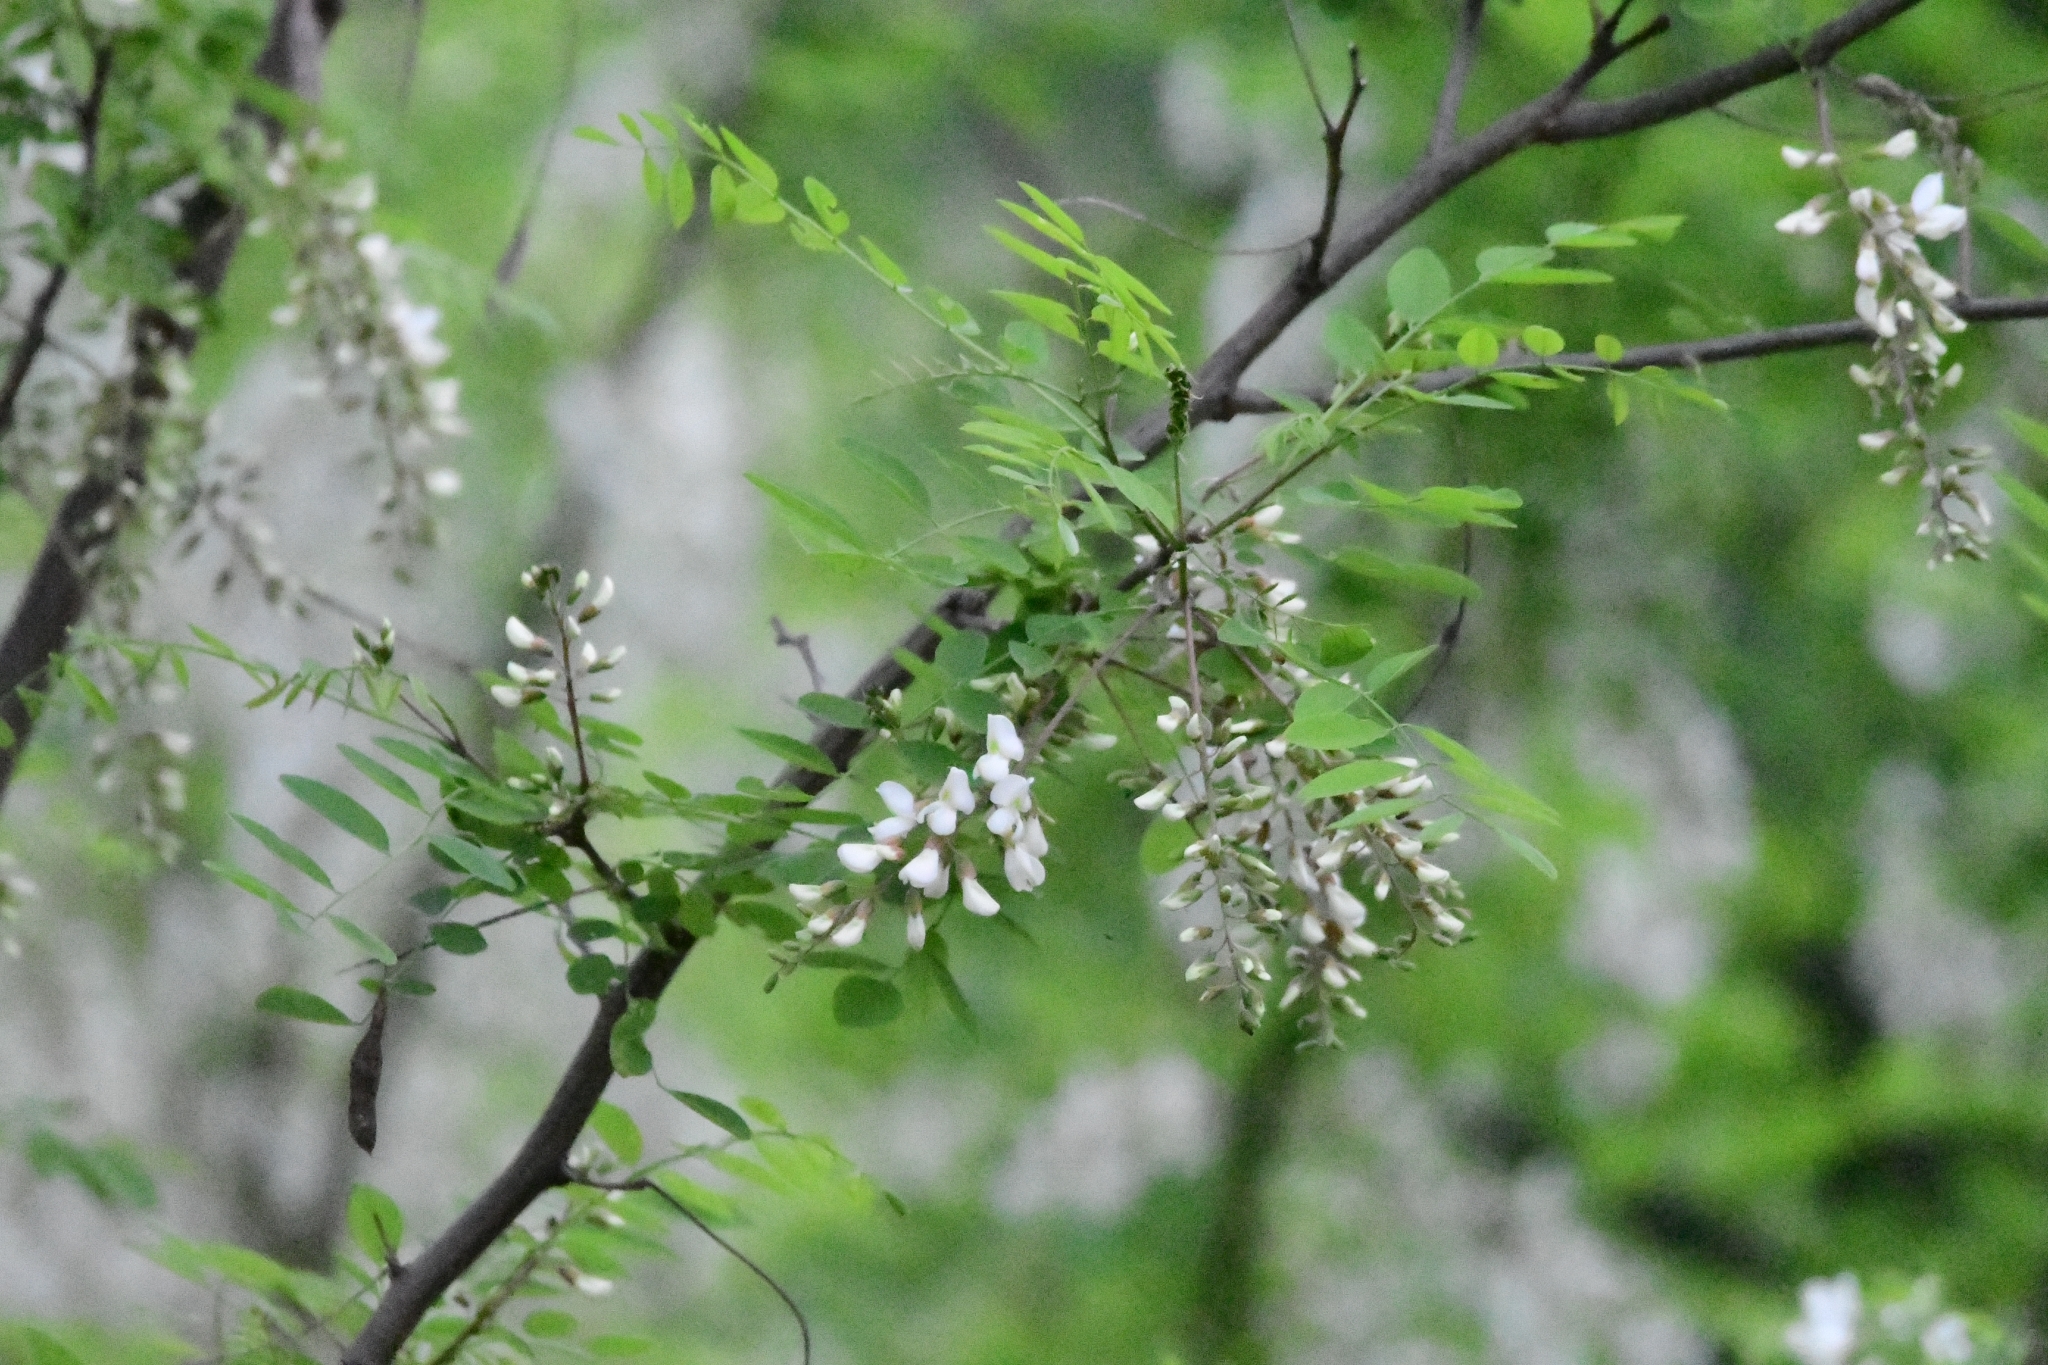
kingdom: Plantae
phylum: Tracheophyta
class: Magnoliopsida
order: Fabales
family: Fabaceae
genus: Robinia
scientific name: Robinia pseudoacacia
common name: Black locust
